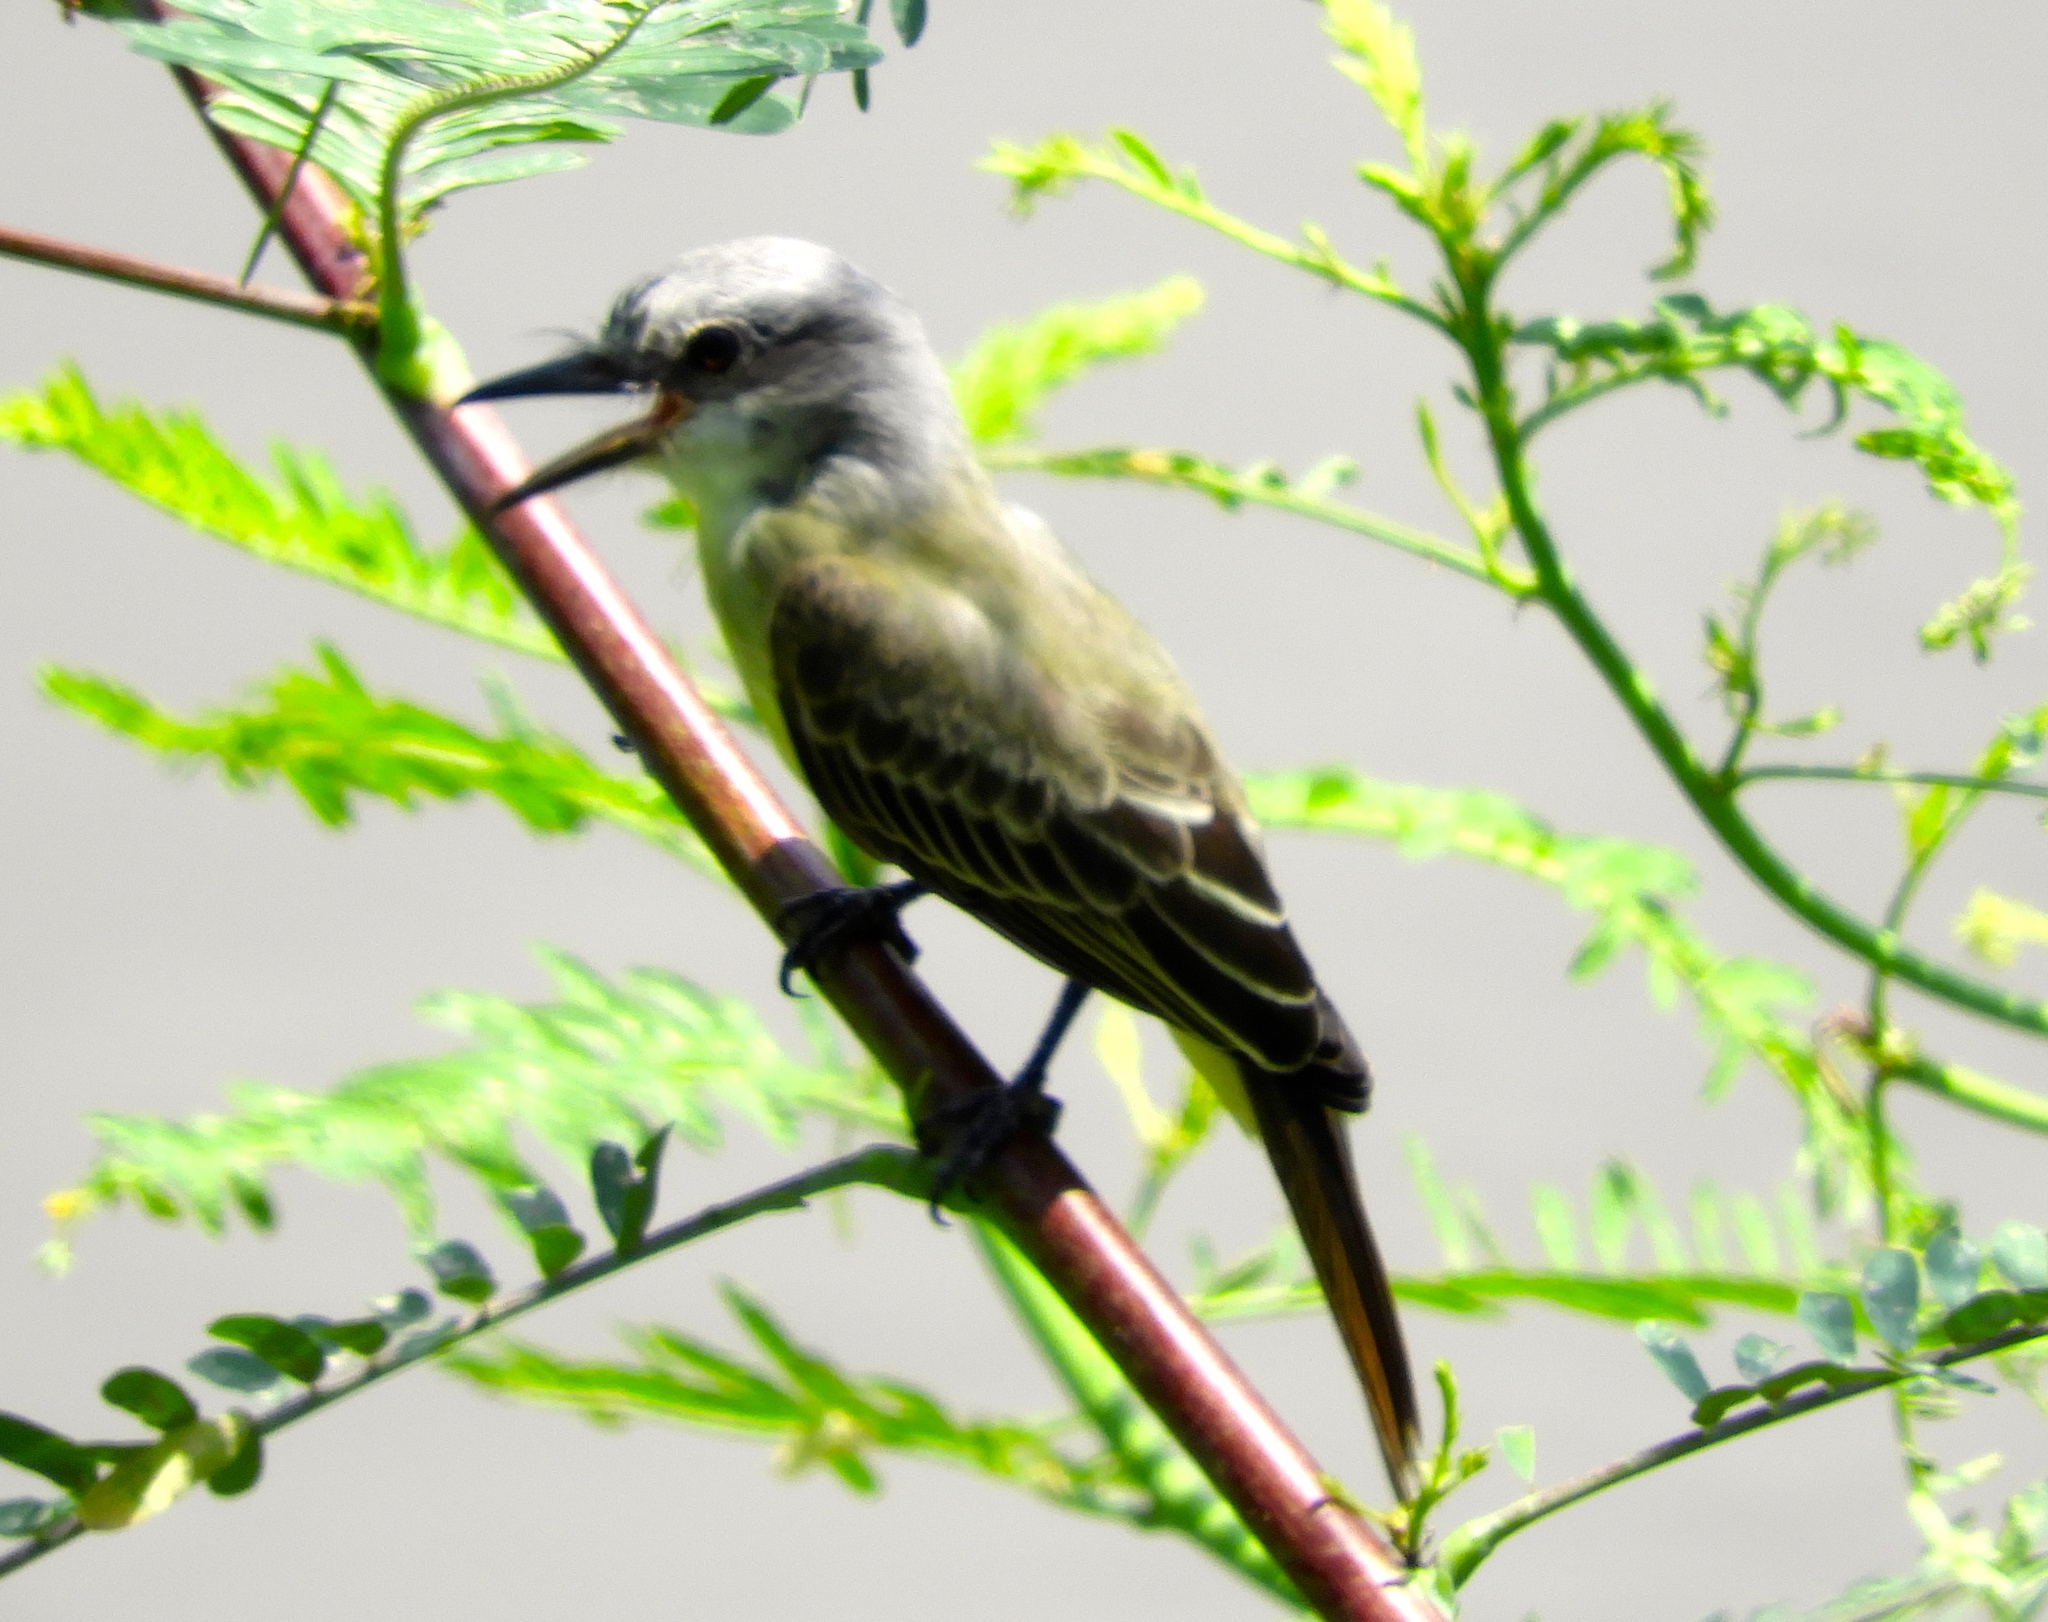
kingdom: Animalia
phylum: Chordata
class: Aves
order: Passeriformes
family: Tyrannidae
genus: Tyrannus
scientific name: Tyrannus melancholicus
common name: Tropical kingbird
